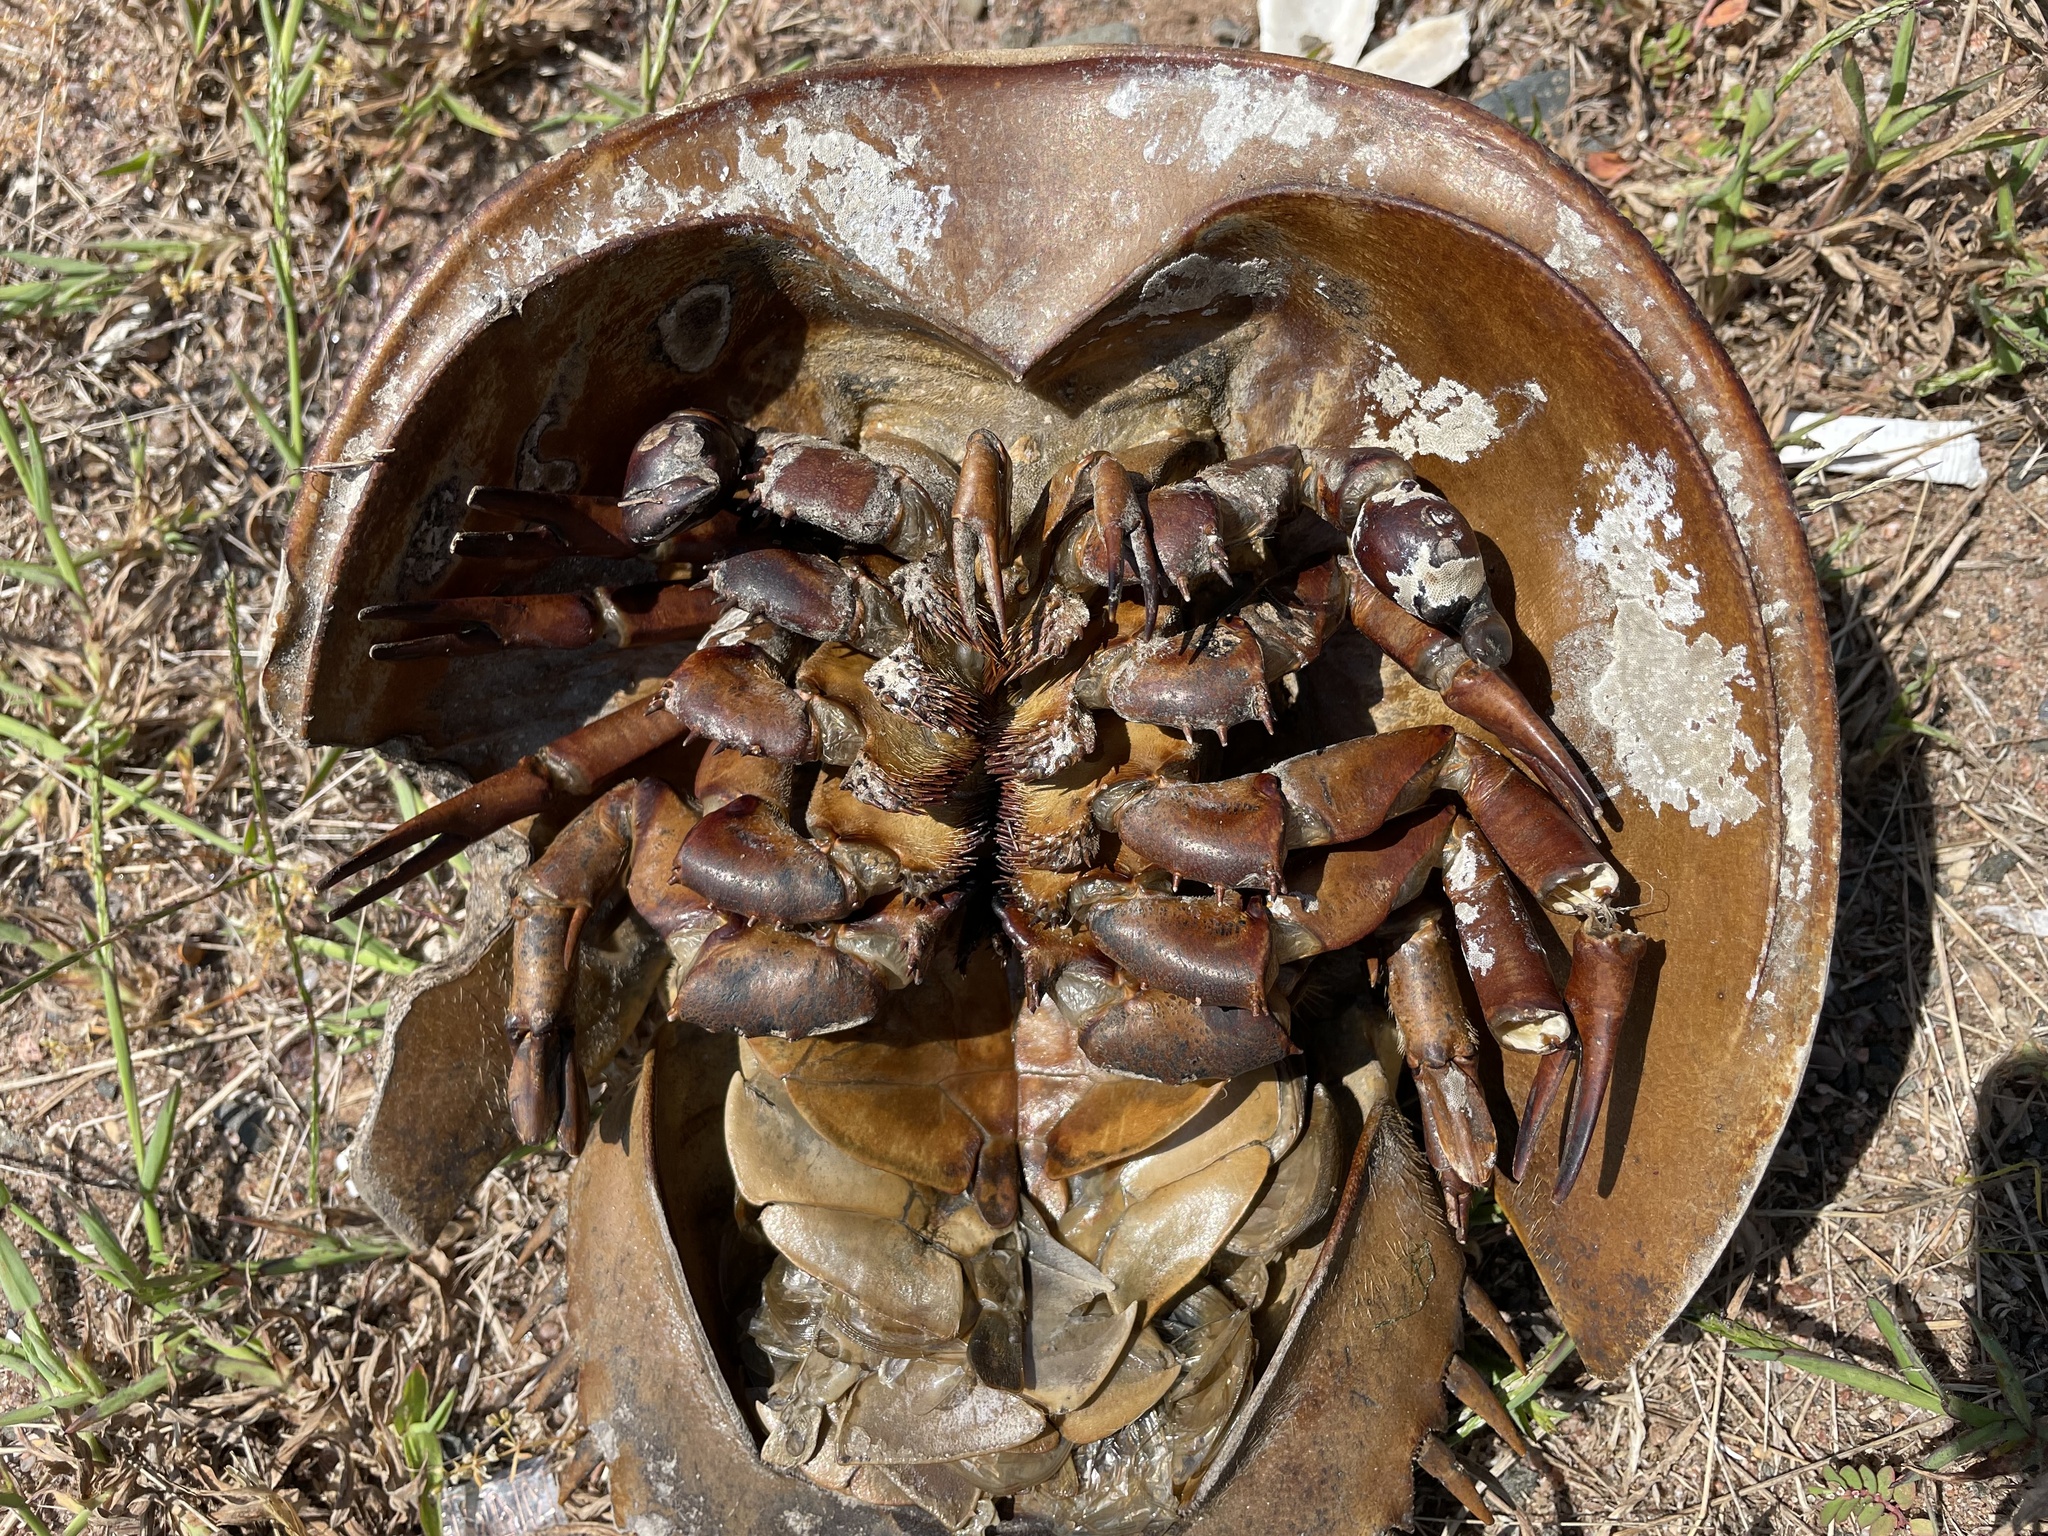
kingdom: Animalia
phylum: Arthropoda
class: Merostomata
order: Xiphosurida
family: Limulidae
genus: Limulus
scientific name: Limulus polyphemus
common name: Horseshoe crab
